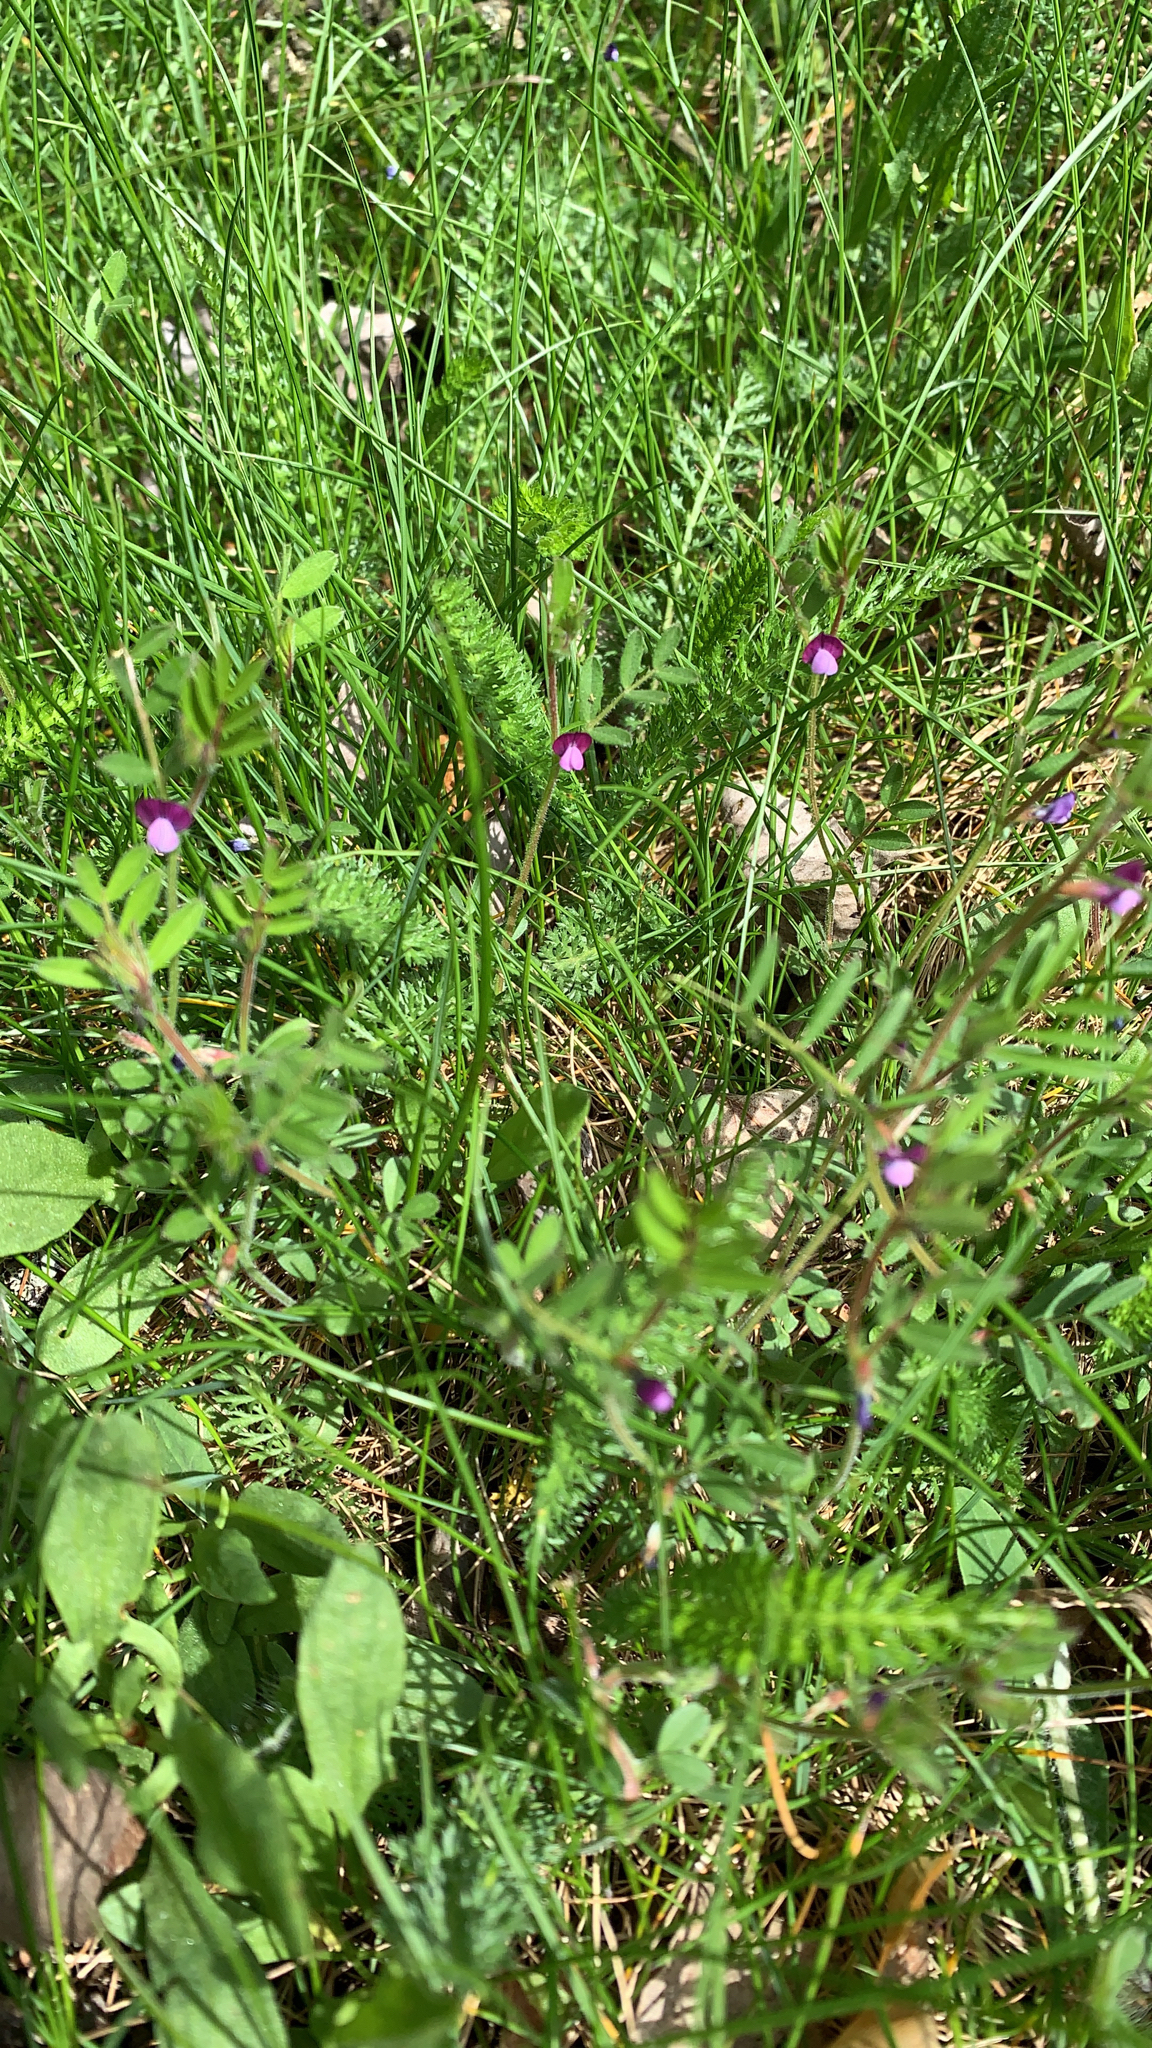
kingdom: Plantae
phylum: Tracheophyta
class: Magnoliopsida
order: Fabales
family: Fabaceae
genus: Vicia
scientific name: Vicia sativa
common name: Garden vetch
